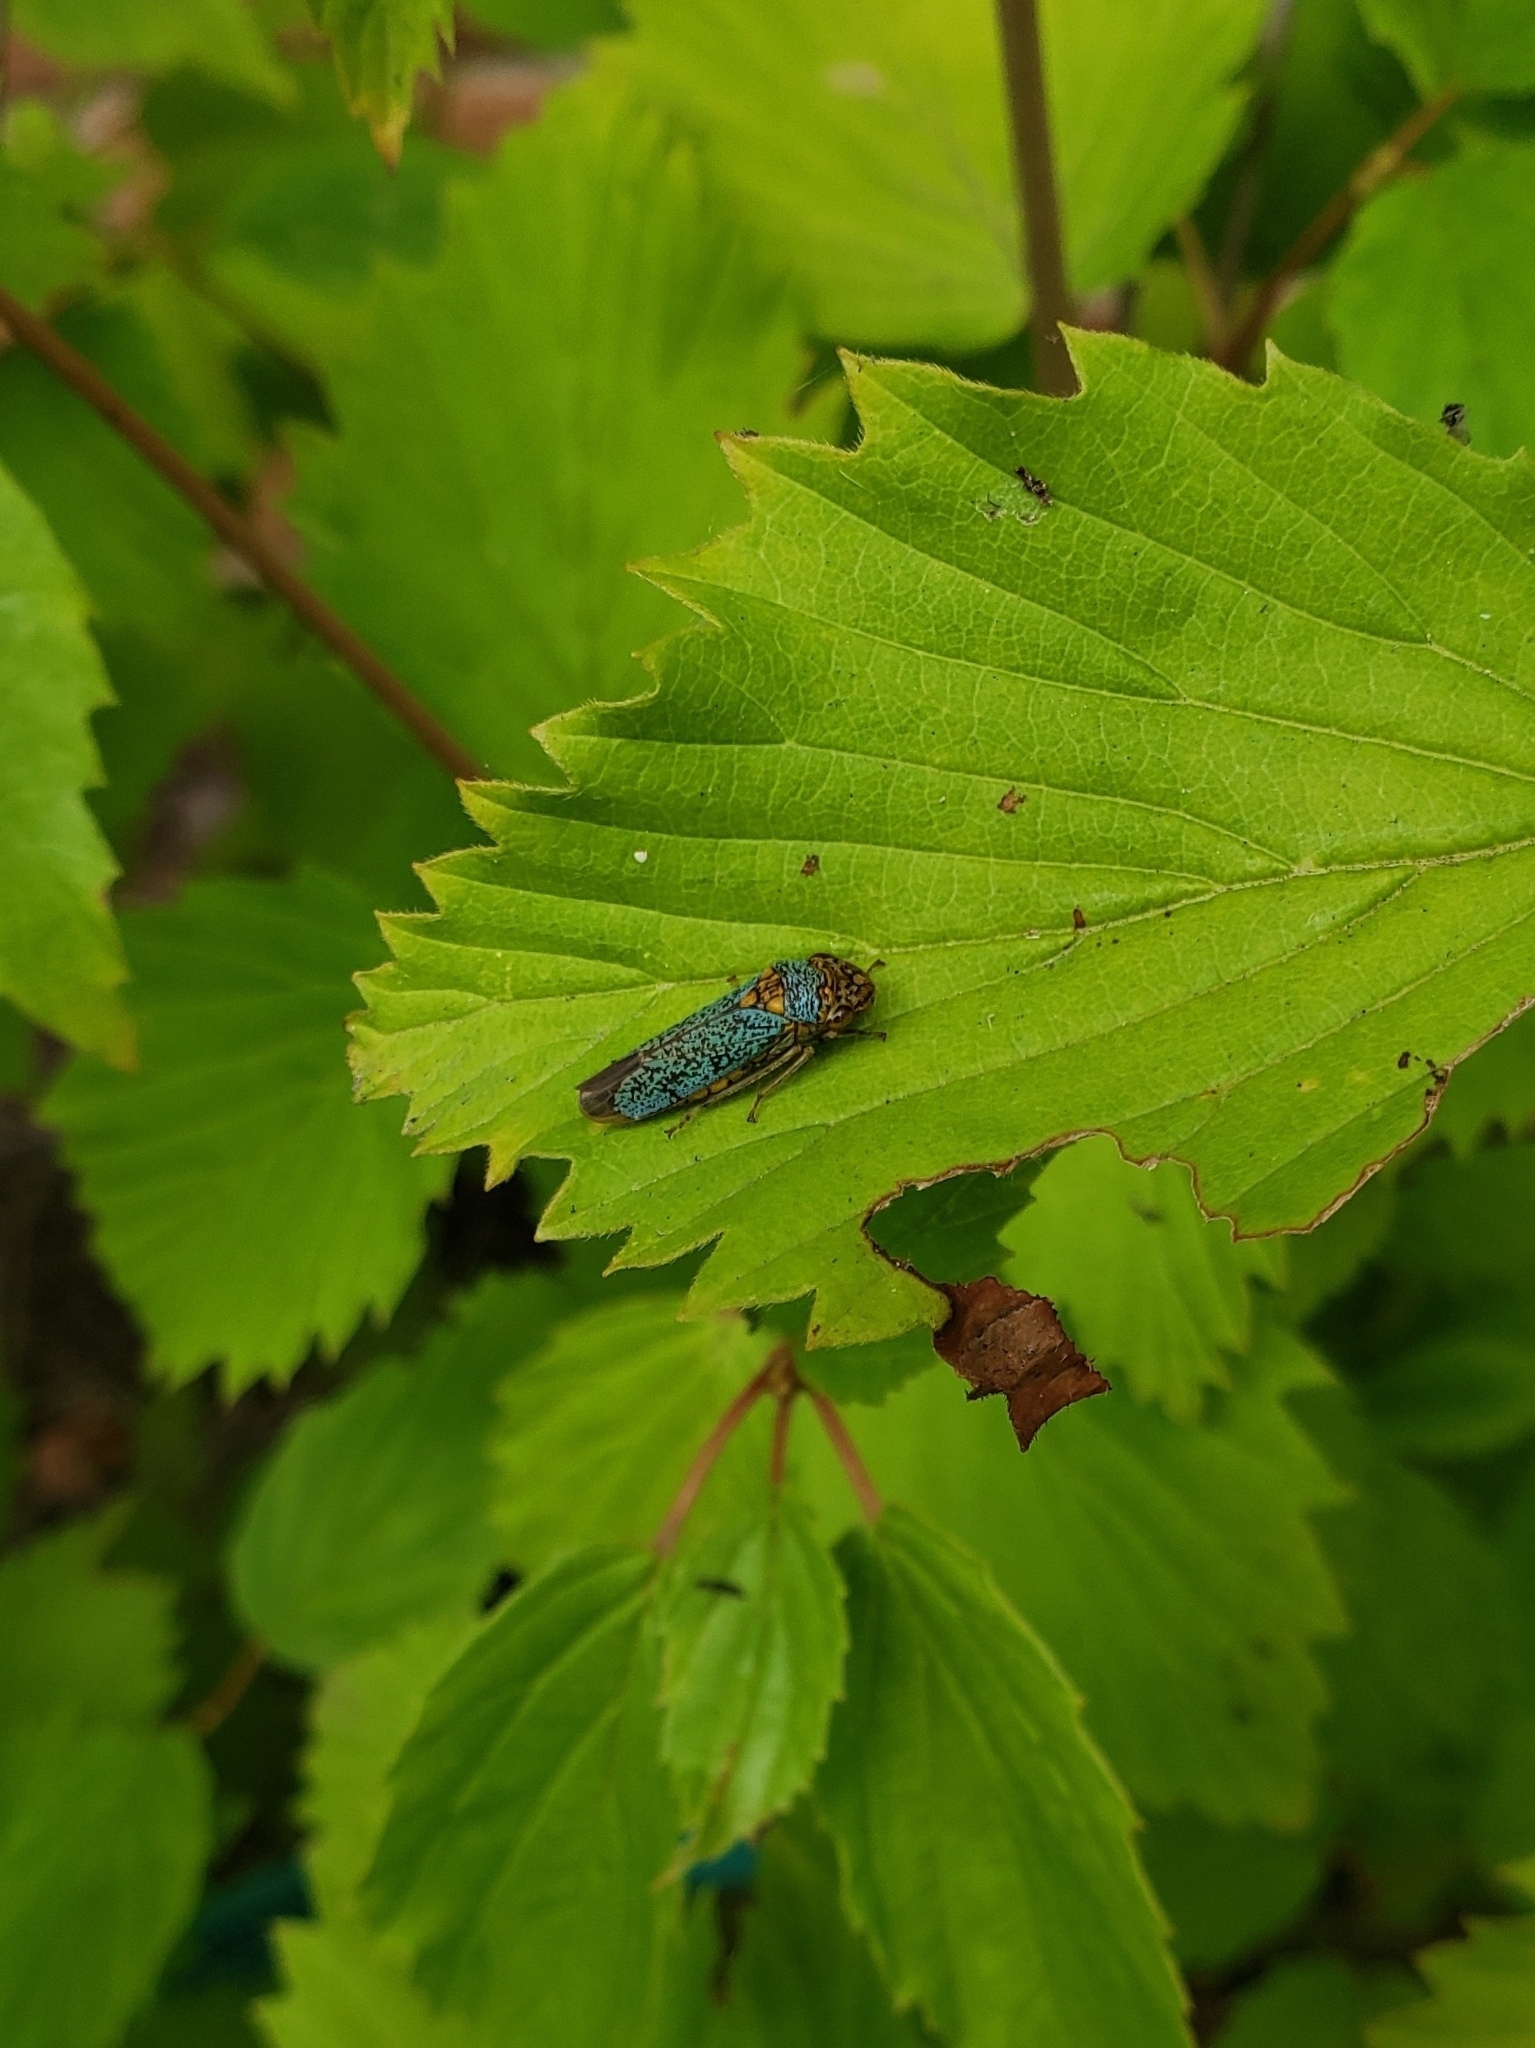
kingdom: Animalia
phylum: Arthropoda
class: Insecta
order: Hemiptera
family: Cicadellidae
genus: Oncometopia
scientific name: Oncometopia orbona
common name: Broad-headed sharpshooter
